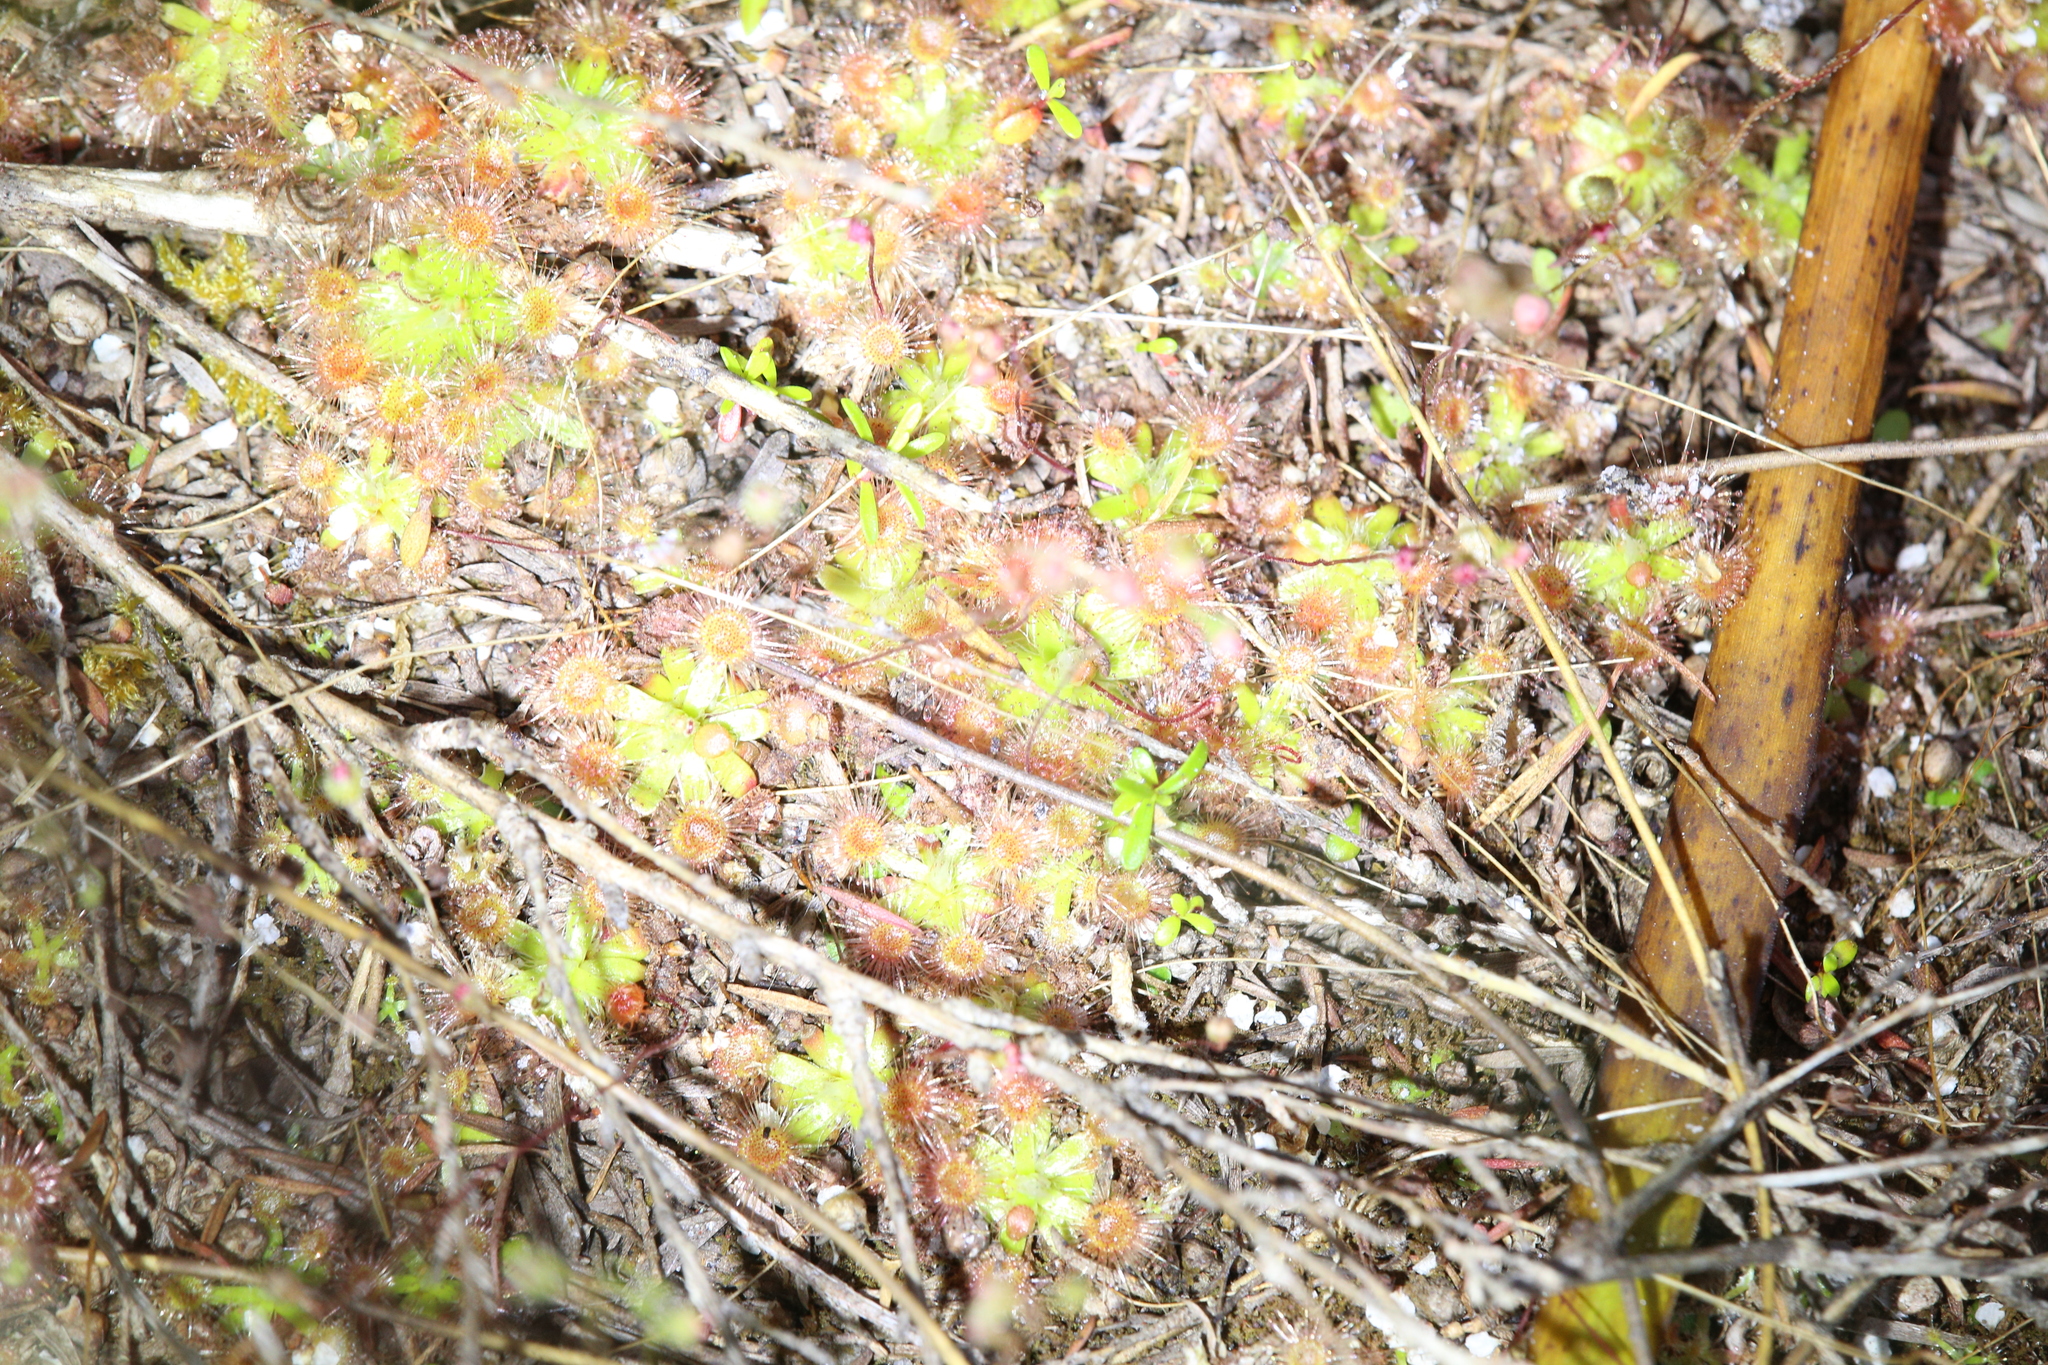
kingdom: Plantae
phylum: Tracheophyta
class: Magnoliopsida
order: Caryophyllales
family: Droseraceae
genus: Drosera
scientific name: Drosera pulchella
